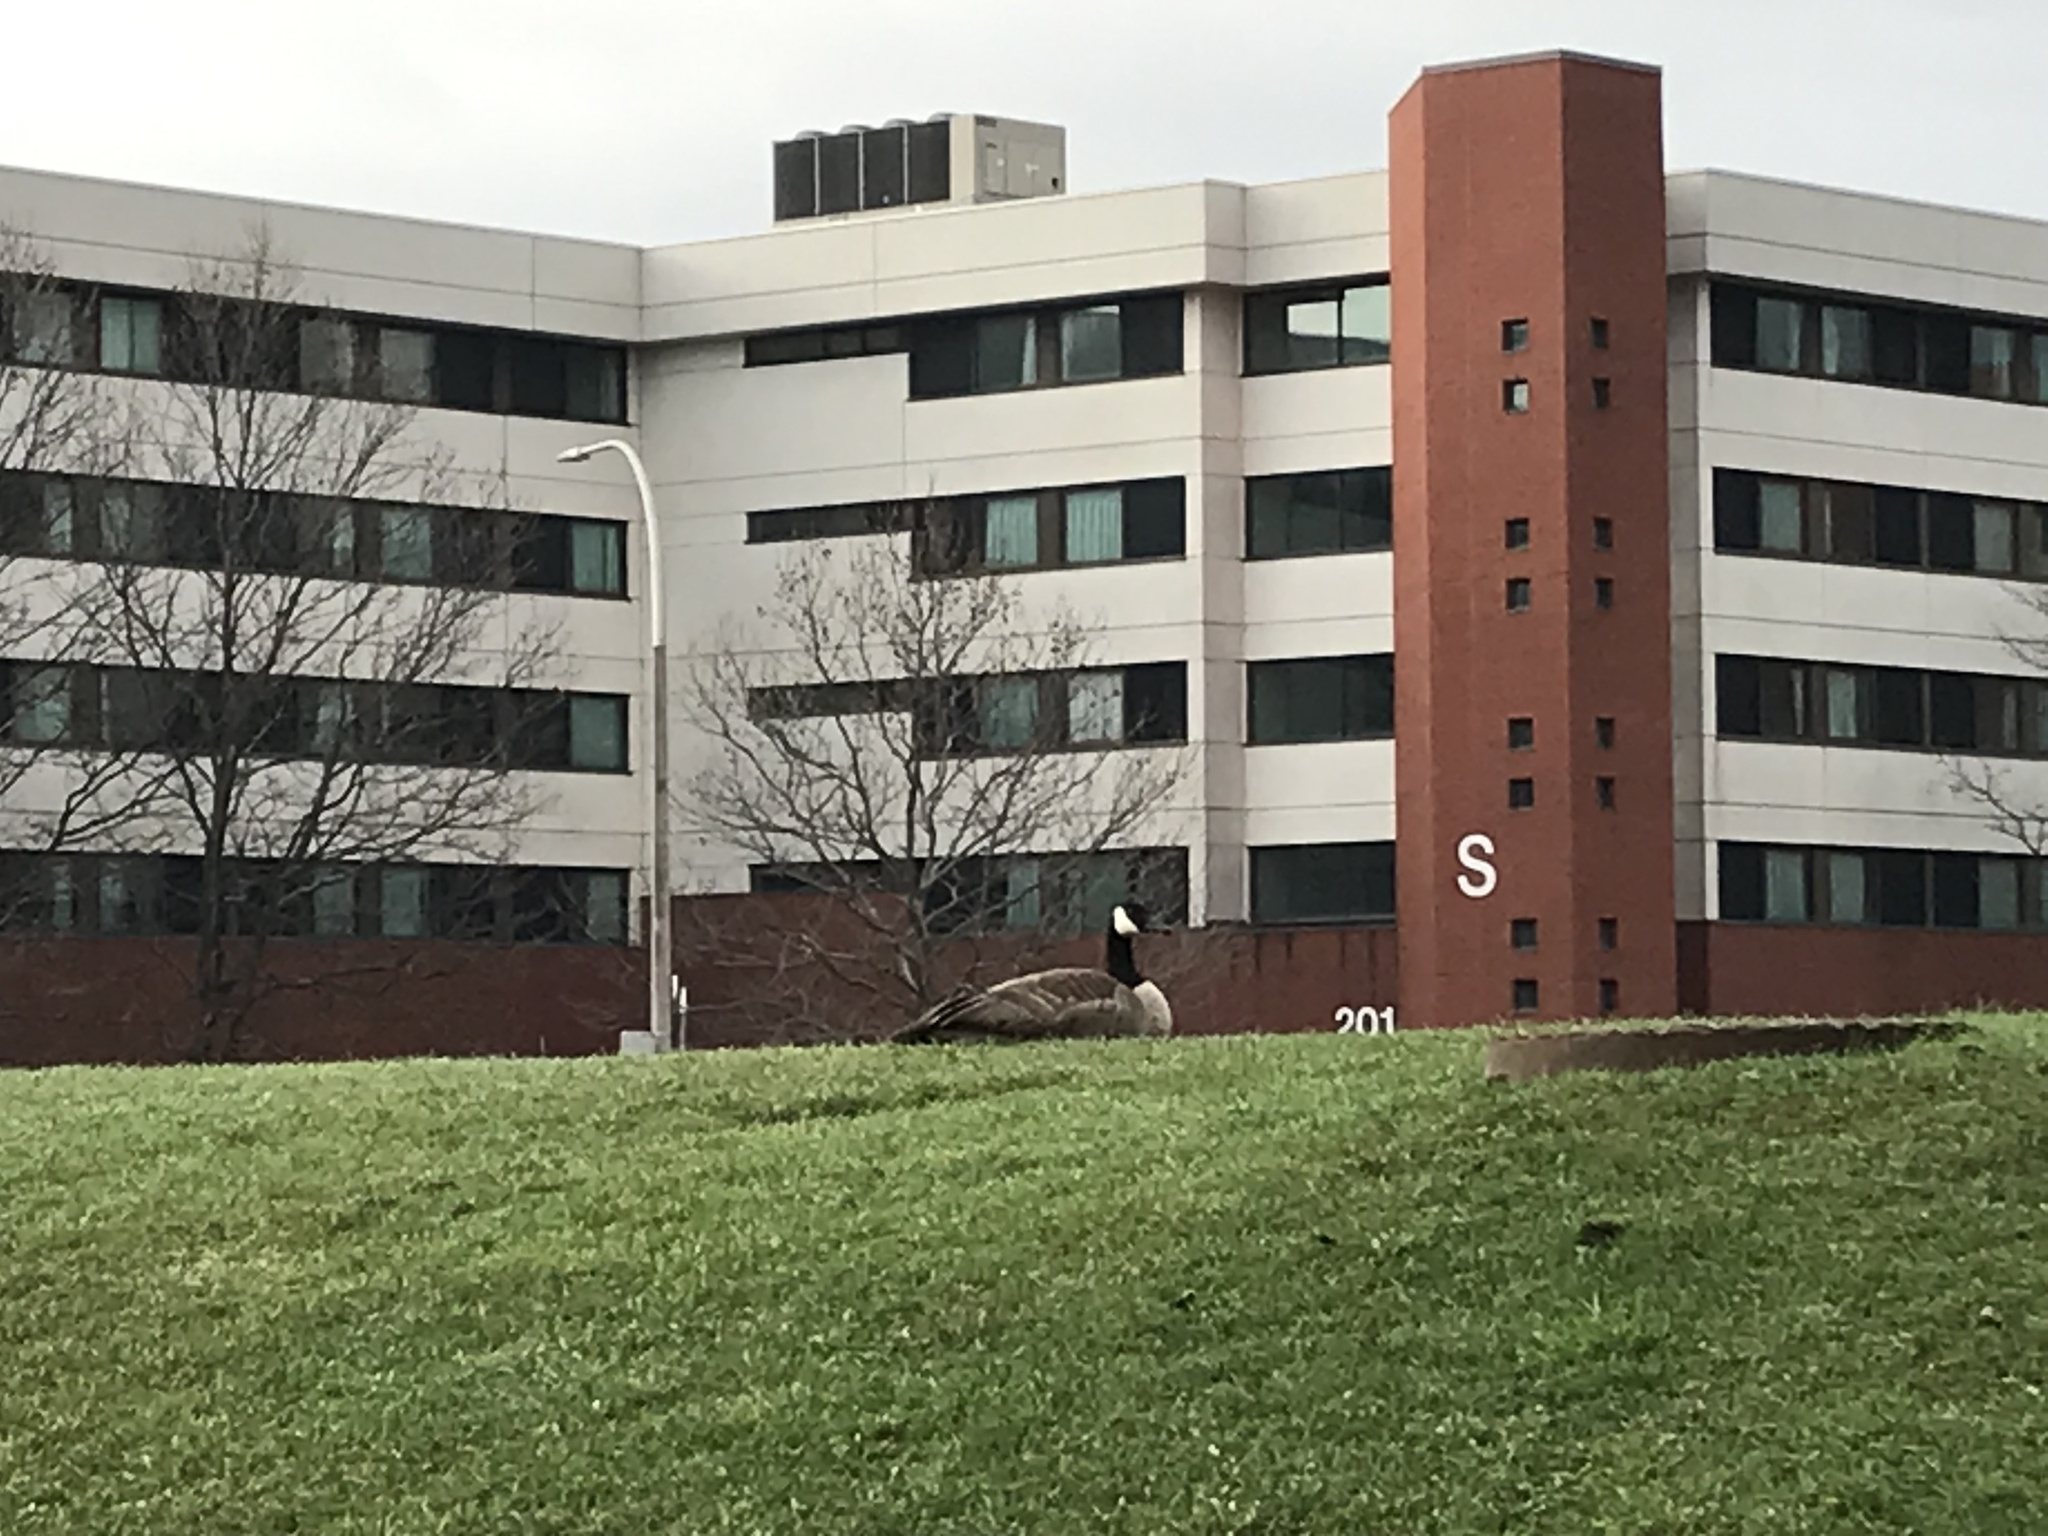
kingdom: Animalia
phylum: Chordata
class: Aves
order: Anseriformes
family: Anatidae
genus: Branta
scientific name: Branta canadensis
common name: Canada goose
